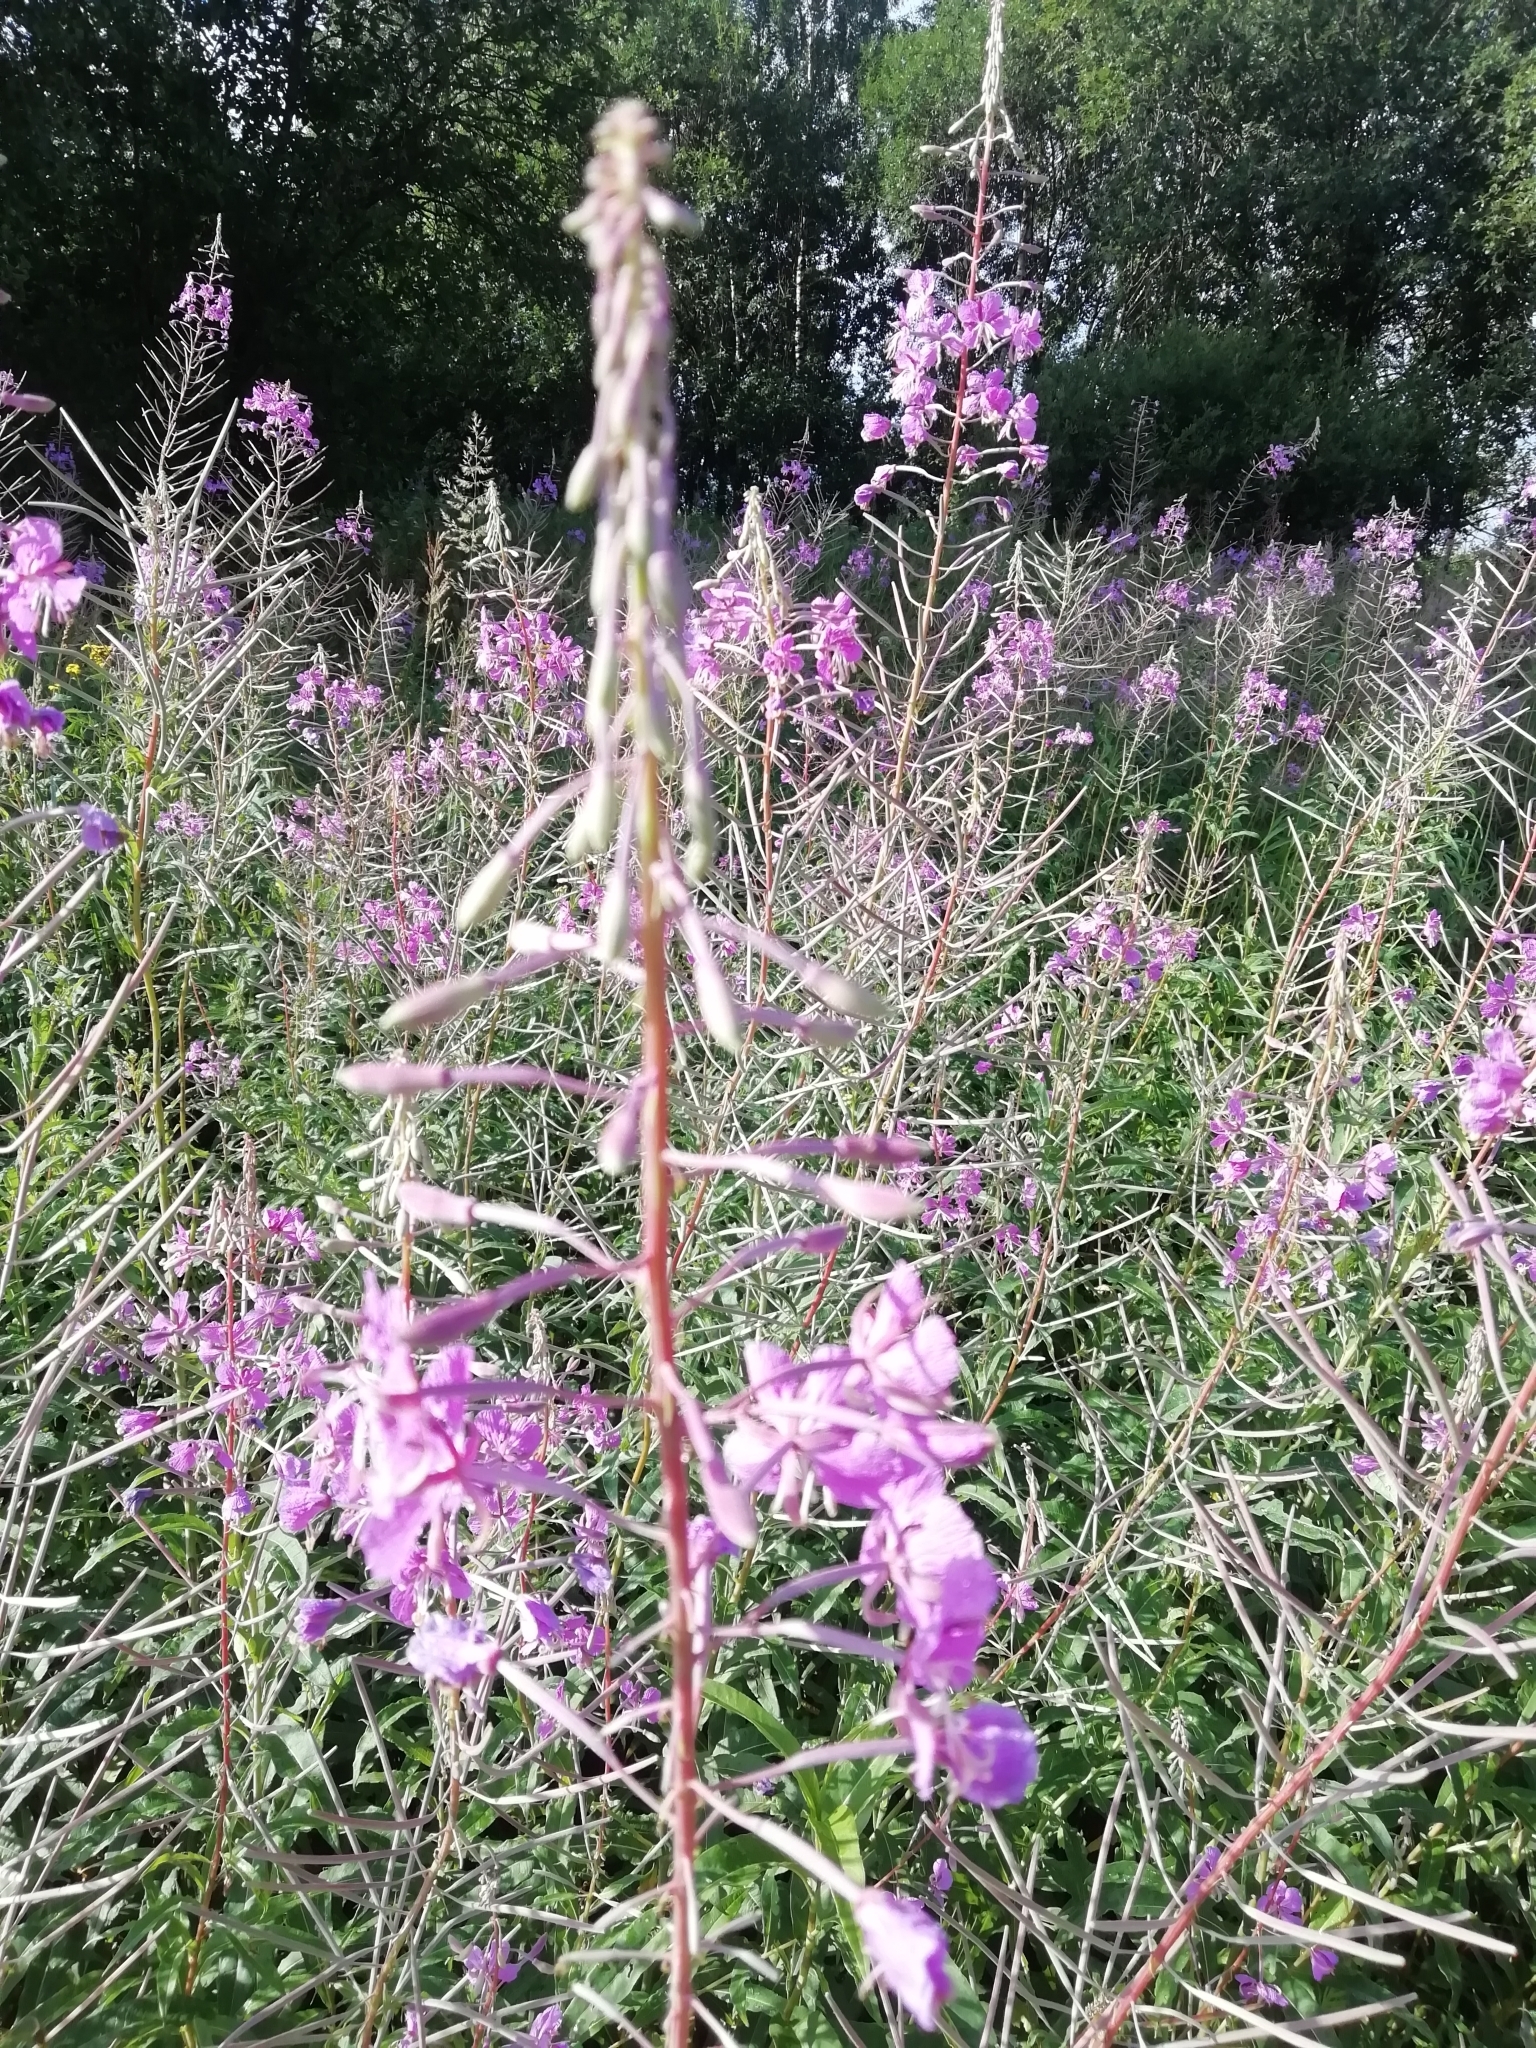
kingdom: Plantae
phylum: Tracheophyta
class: Magnoliopsida
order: Myrtales
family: Onagraceae
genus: Chamaenerion
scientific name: Chamaenerion angustifolium
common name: Fireweed
